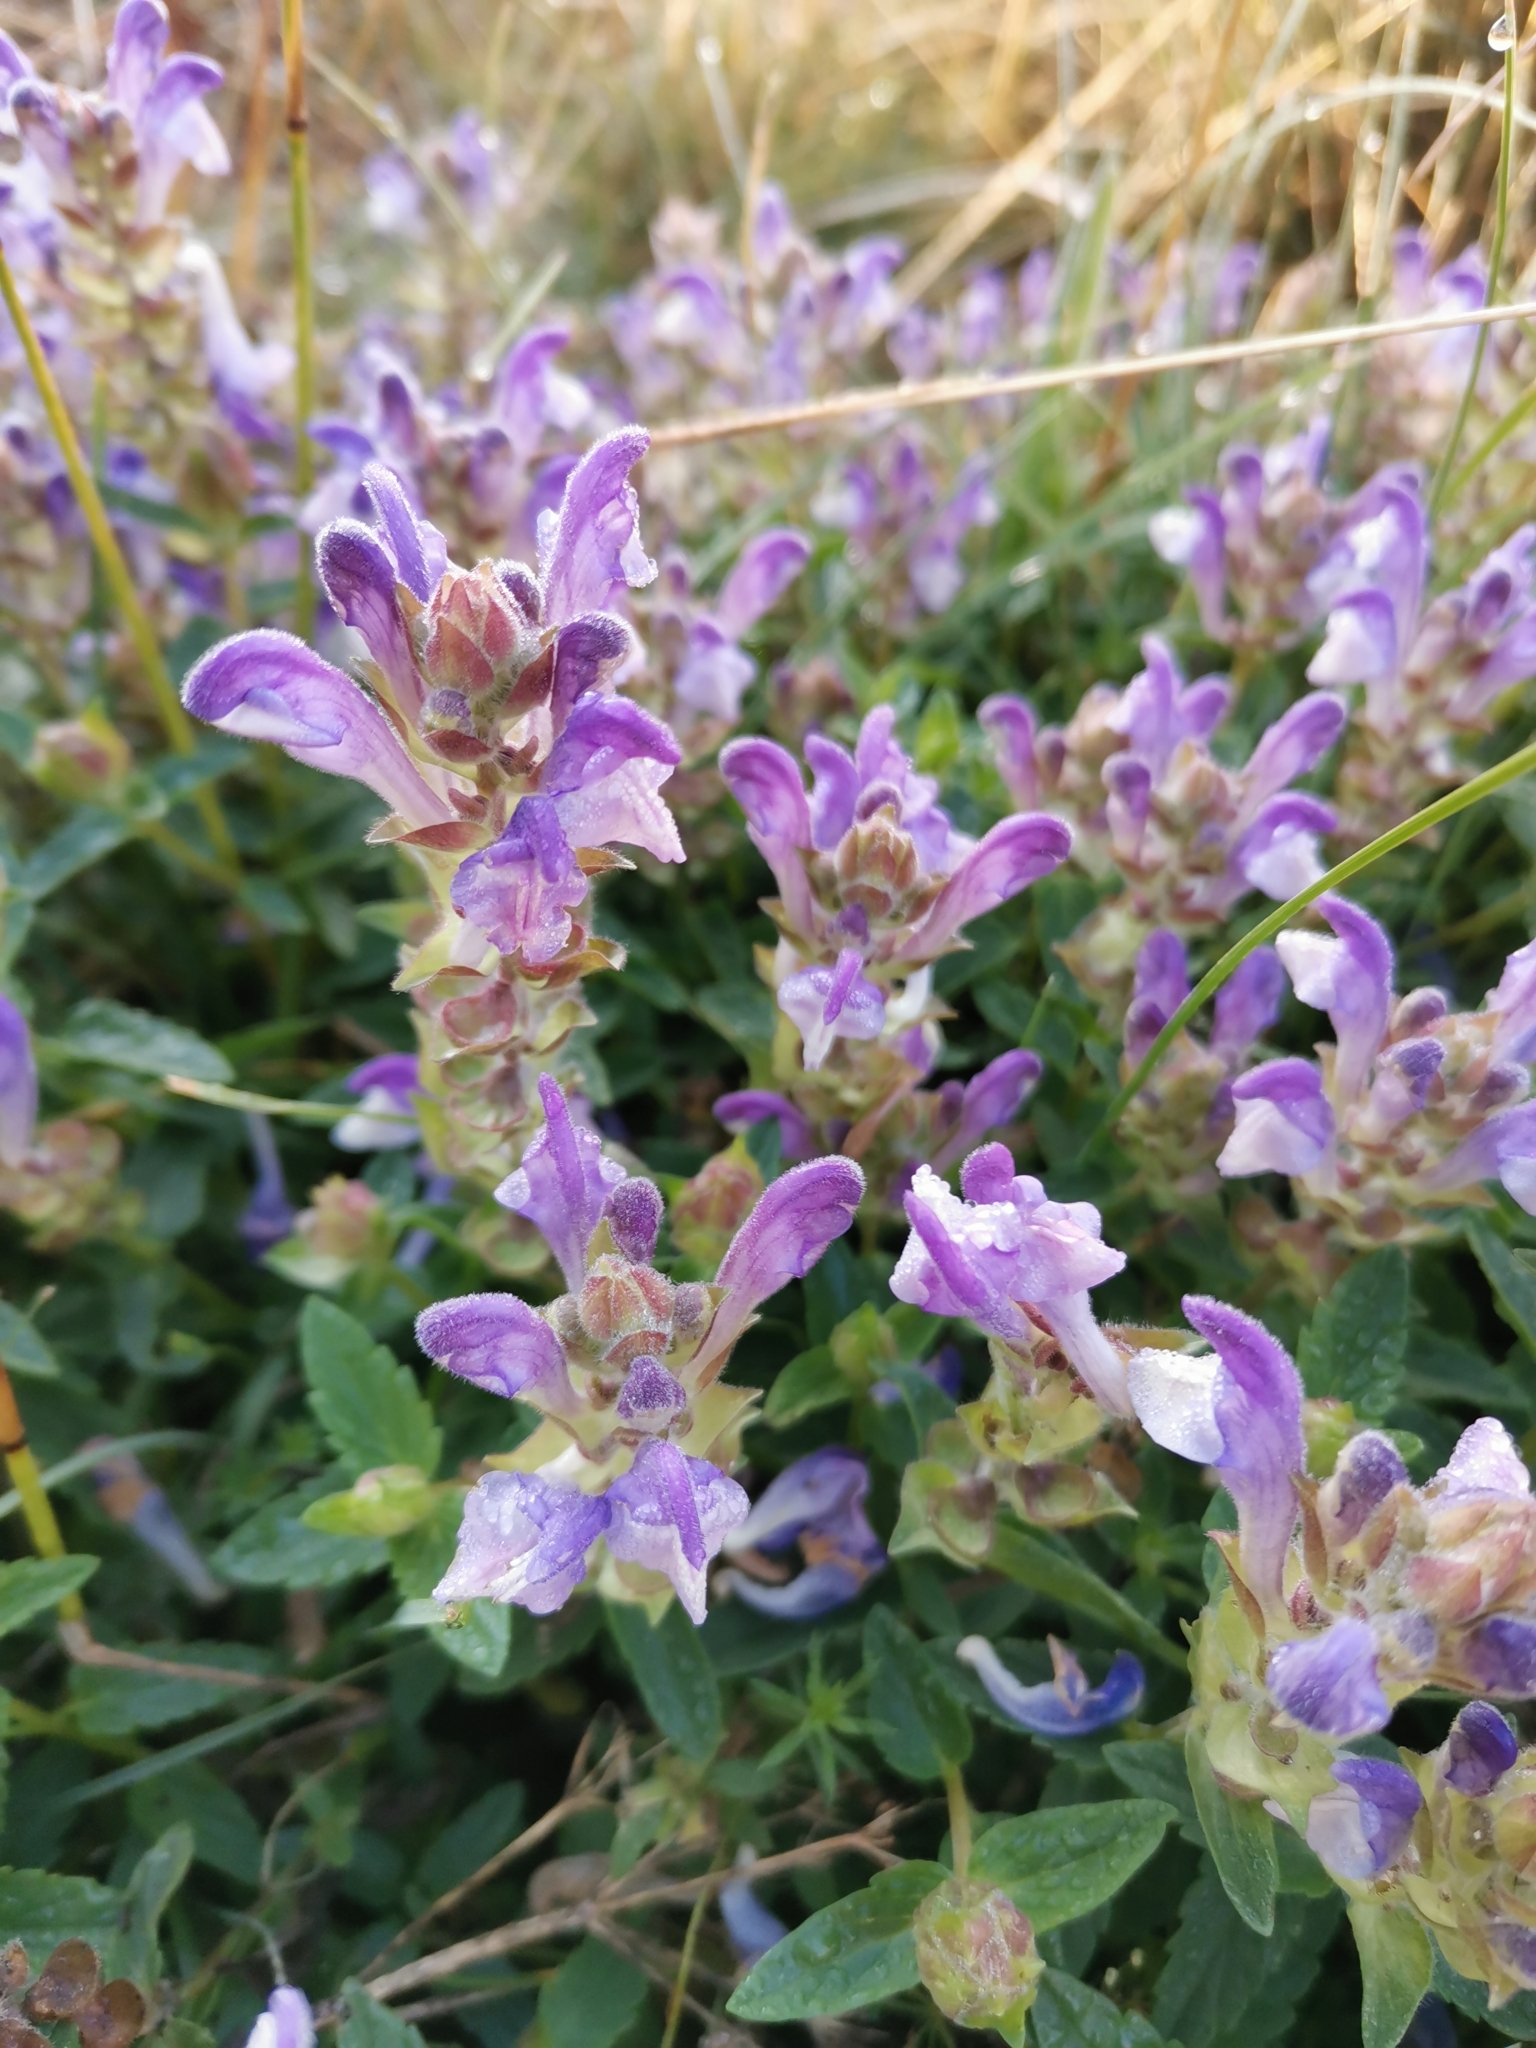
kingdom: Plantae
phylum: Tracheophyta
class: Magnoliopsida
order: Lamiales
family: Lamiaceae
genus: Scutellaria
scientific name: Scutellaria alpina
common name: Alpine scullcap
